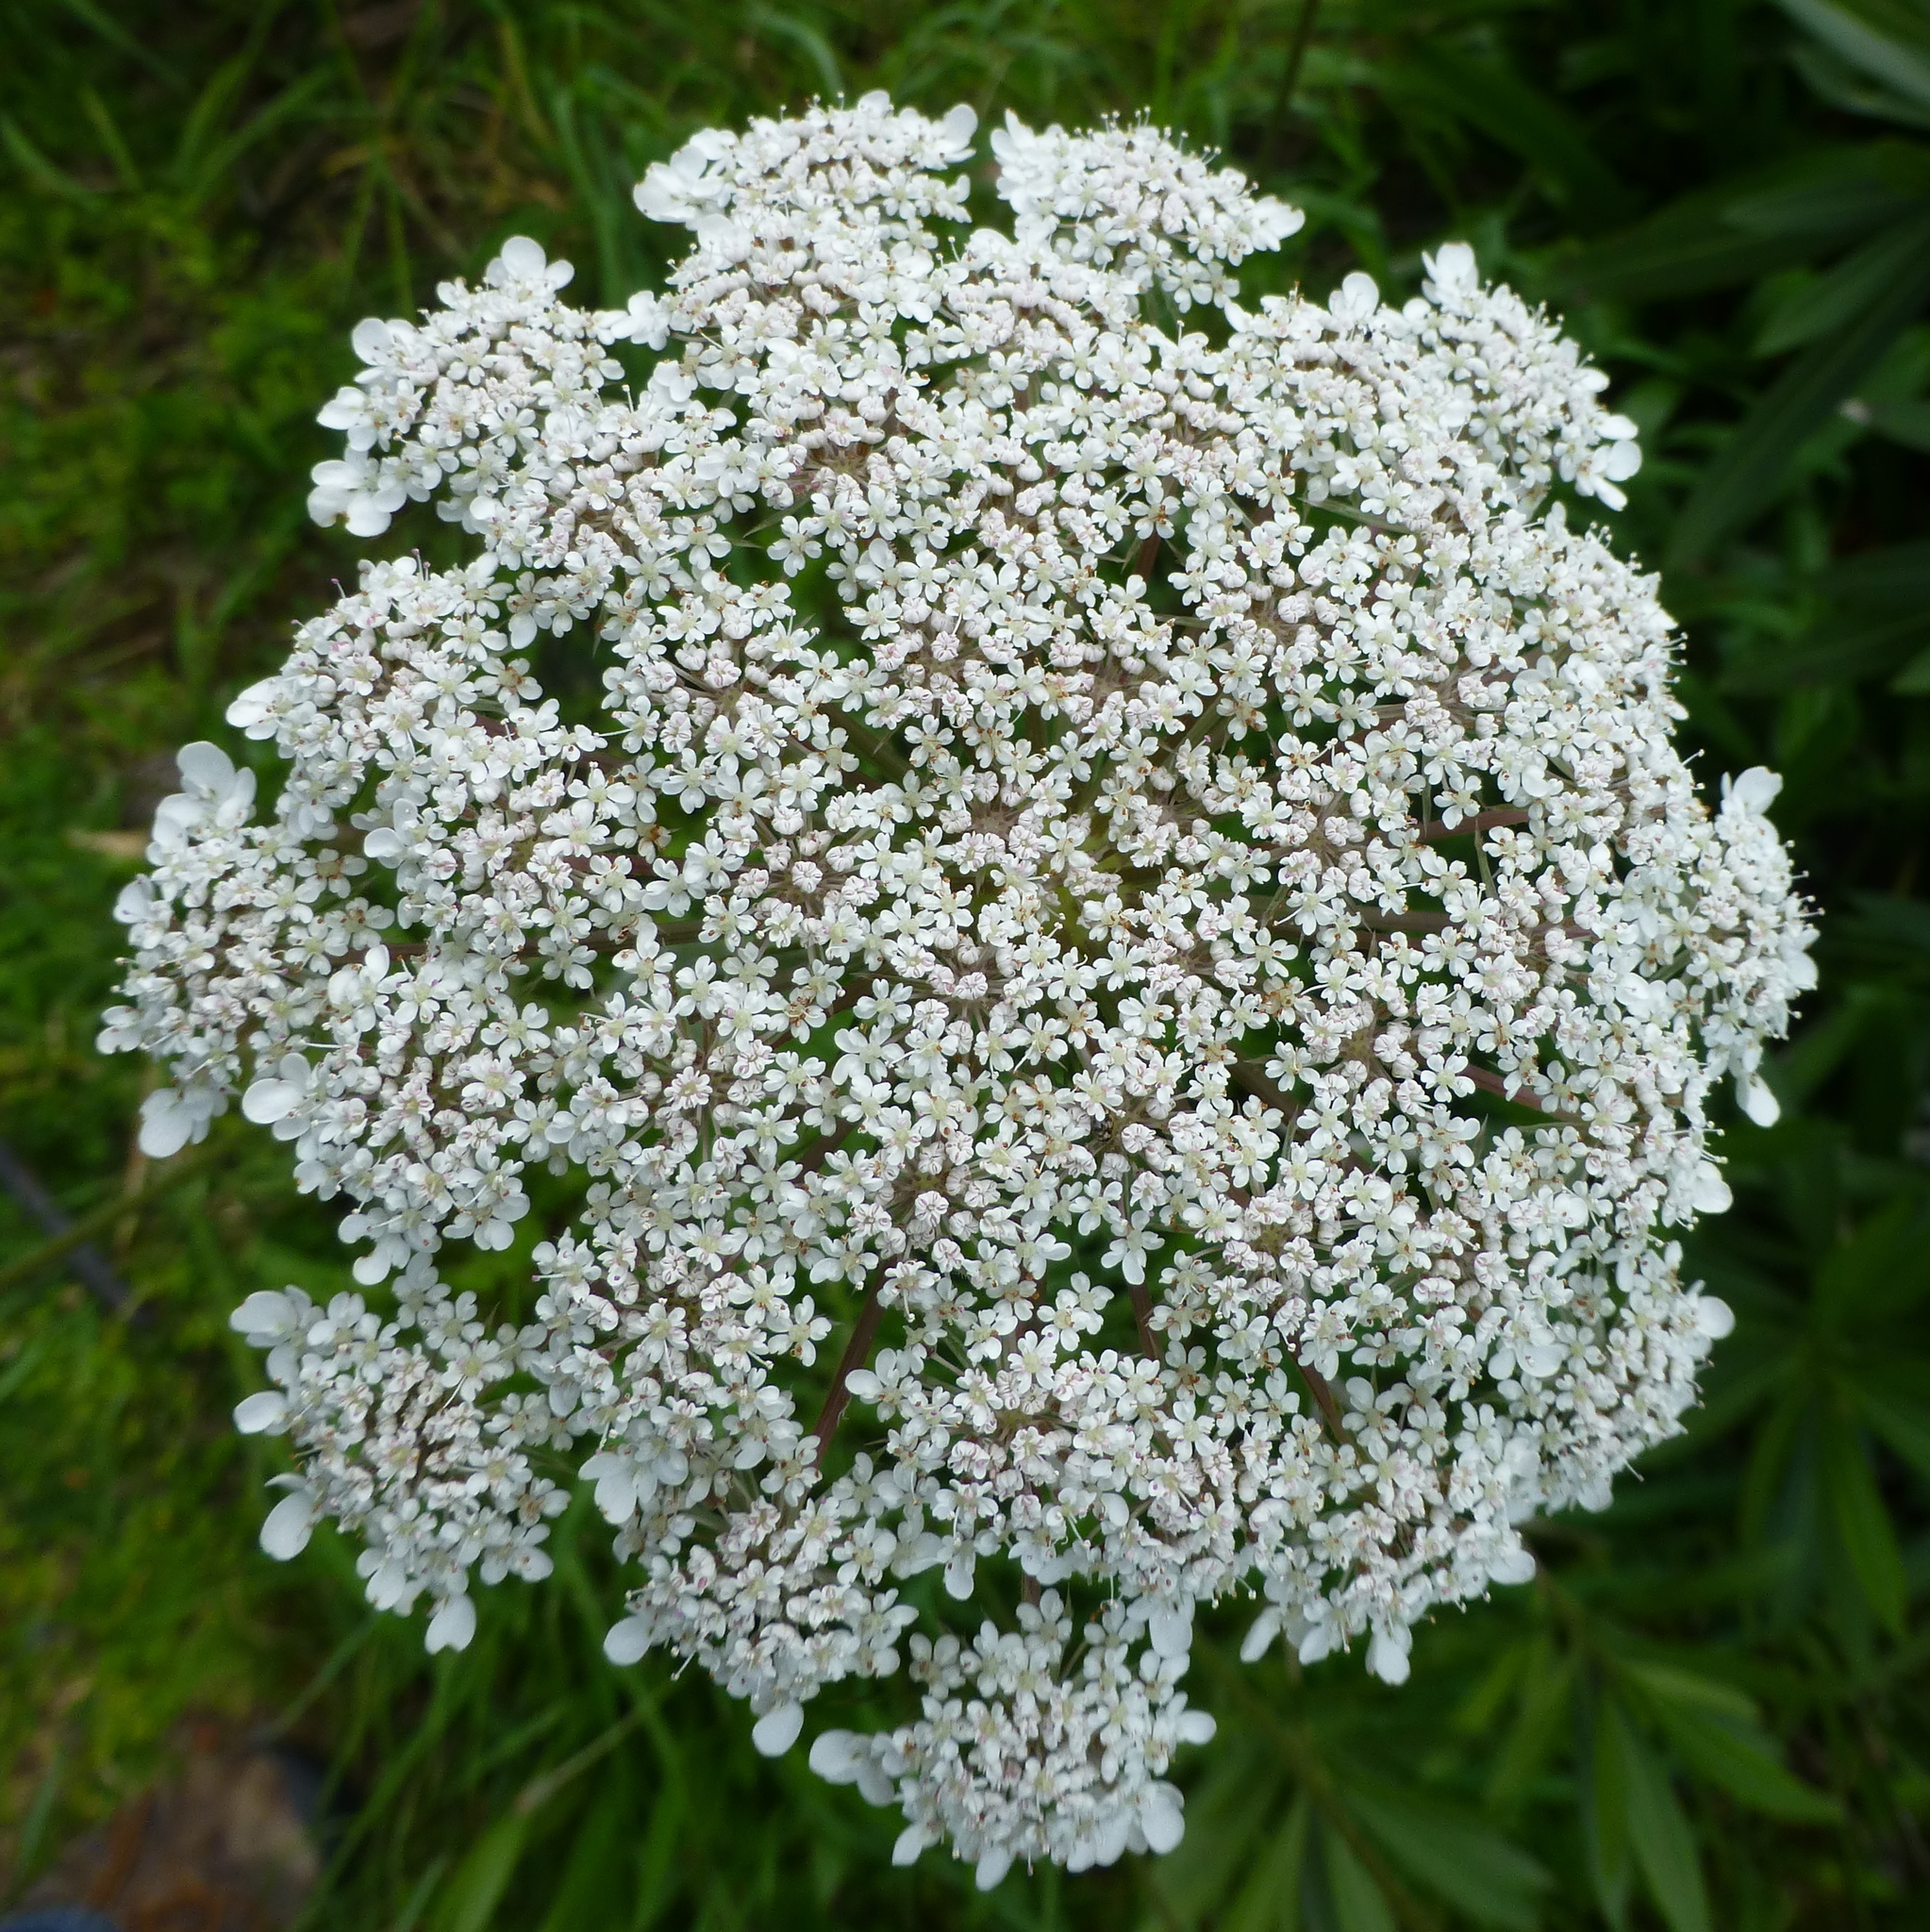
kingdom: Plantae
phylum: Tracheophyta
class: Magnoliopsida
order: Apiales
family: Apiaceae
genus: Daucus
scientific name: Daucus carota
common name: Wild carrot
